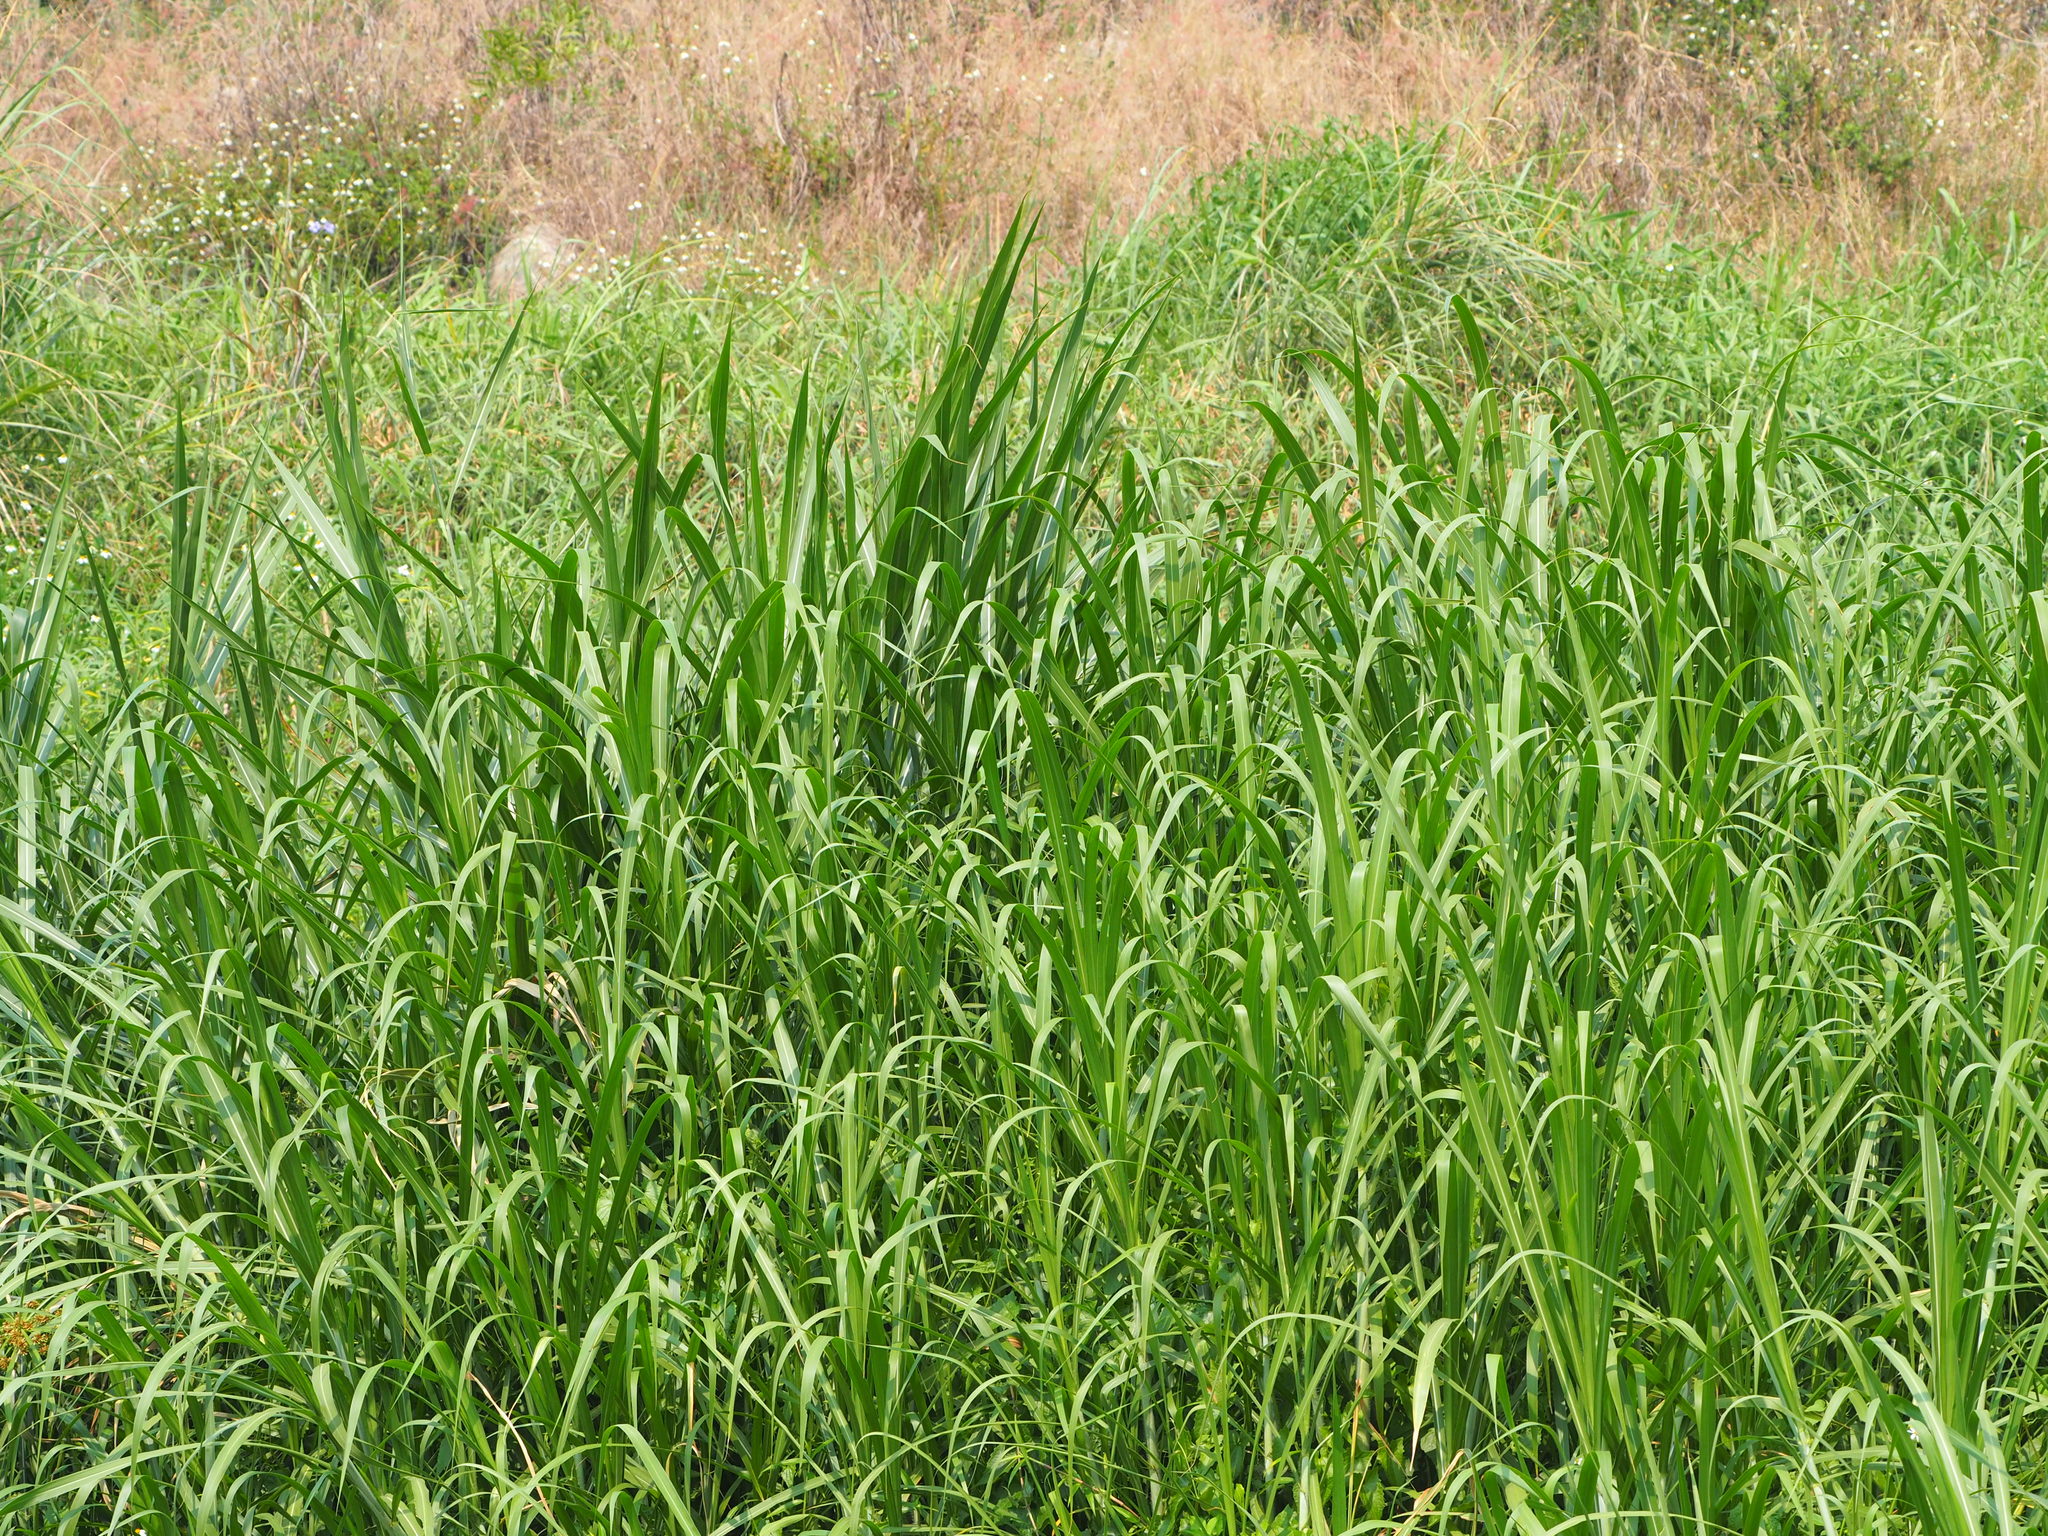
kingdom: Plantae
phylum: Tracheophyta
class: Liliopsida
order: Poales
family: Poaceae
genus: Cenchrus
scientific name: Cenchrus purpureus
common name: Elephant grass
